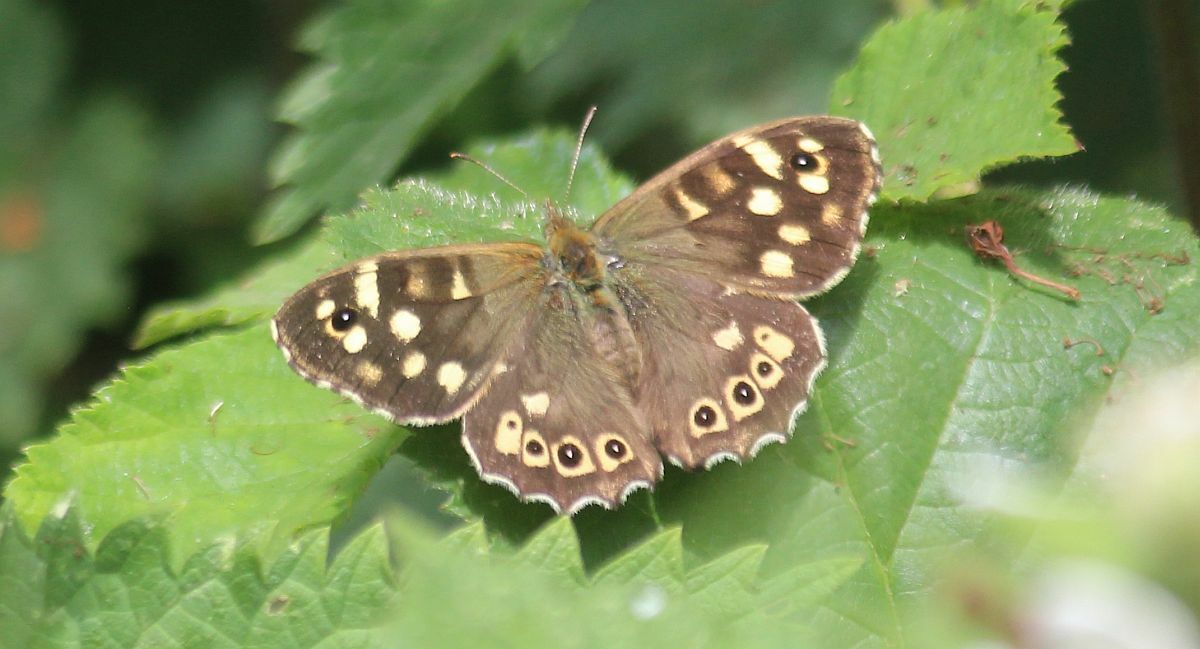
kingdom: Animalia
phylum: Arthropoda
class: Insecta
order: Lepidoptera
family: Nymphalidae
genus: Pararge
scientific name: Pararge aegeria
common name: Speckled wood
